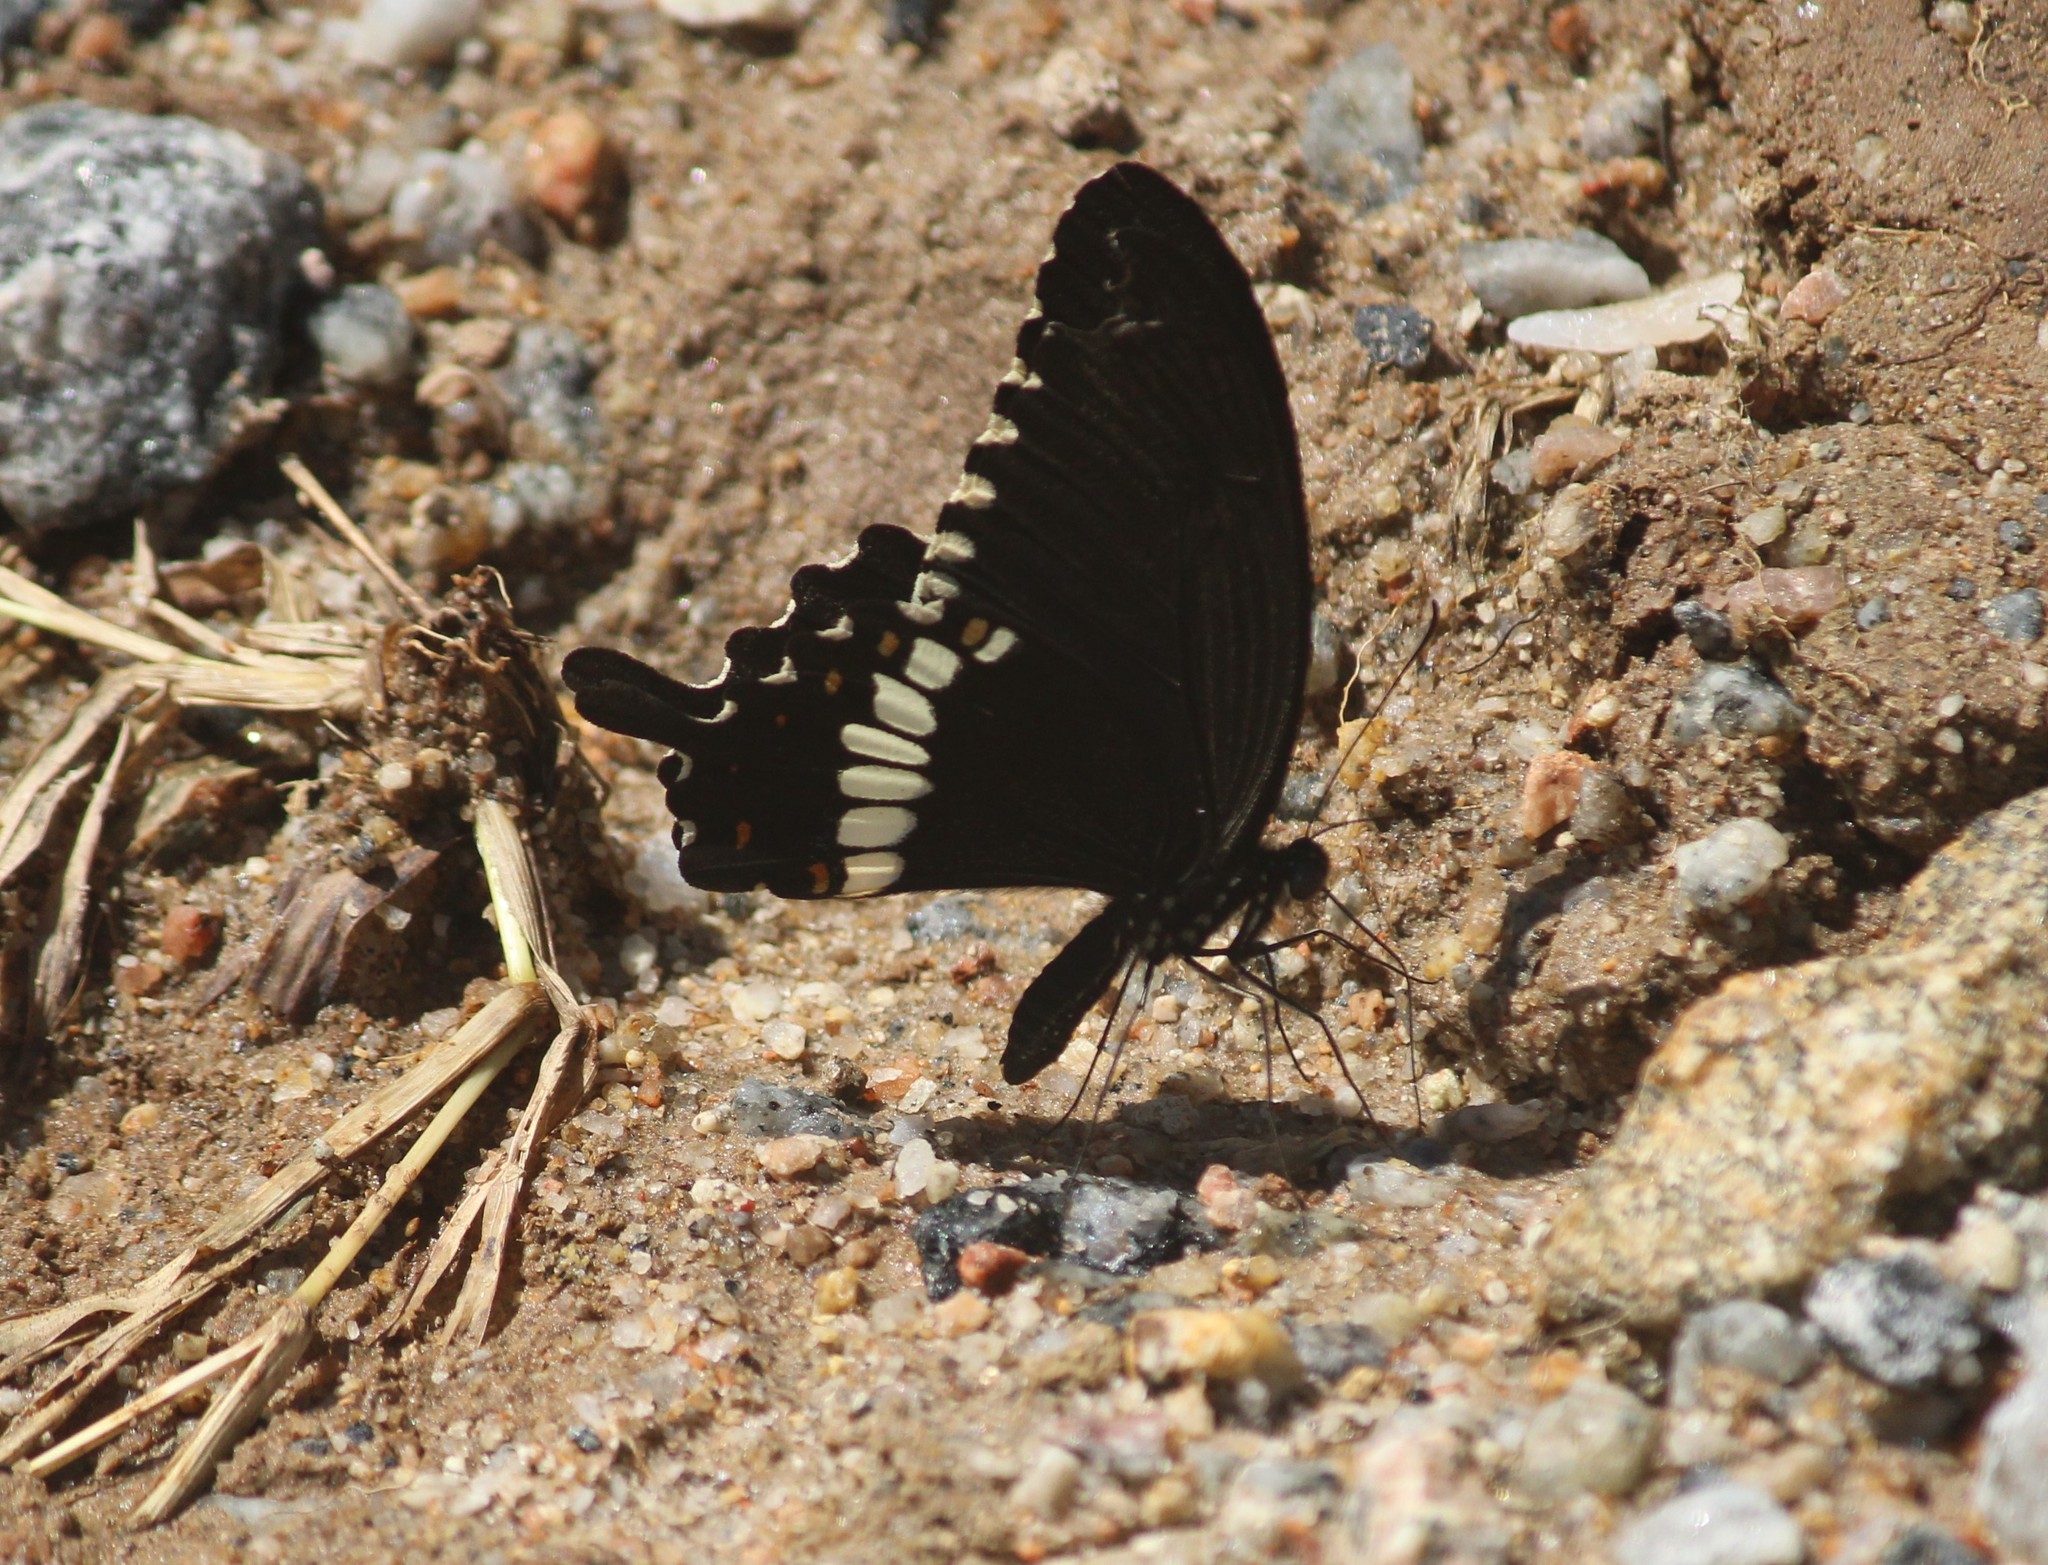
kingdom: Animalia
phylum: Arthropoda
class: Insecta
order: Lepidoptera
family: Papilionidae
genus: Papilio
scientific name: Papilio polytes
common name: Common mormon
